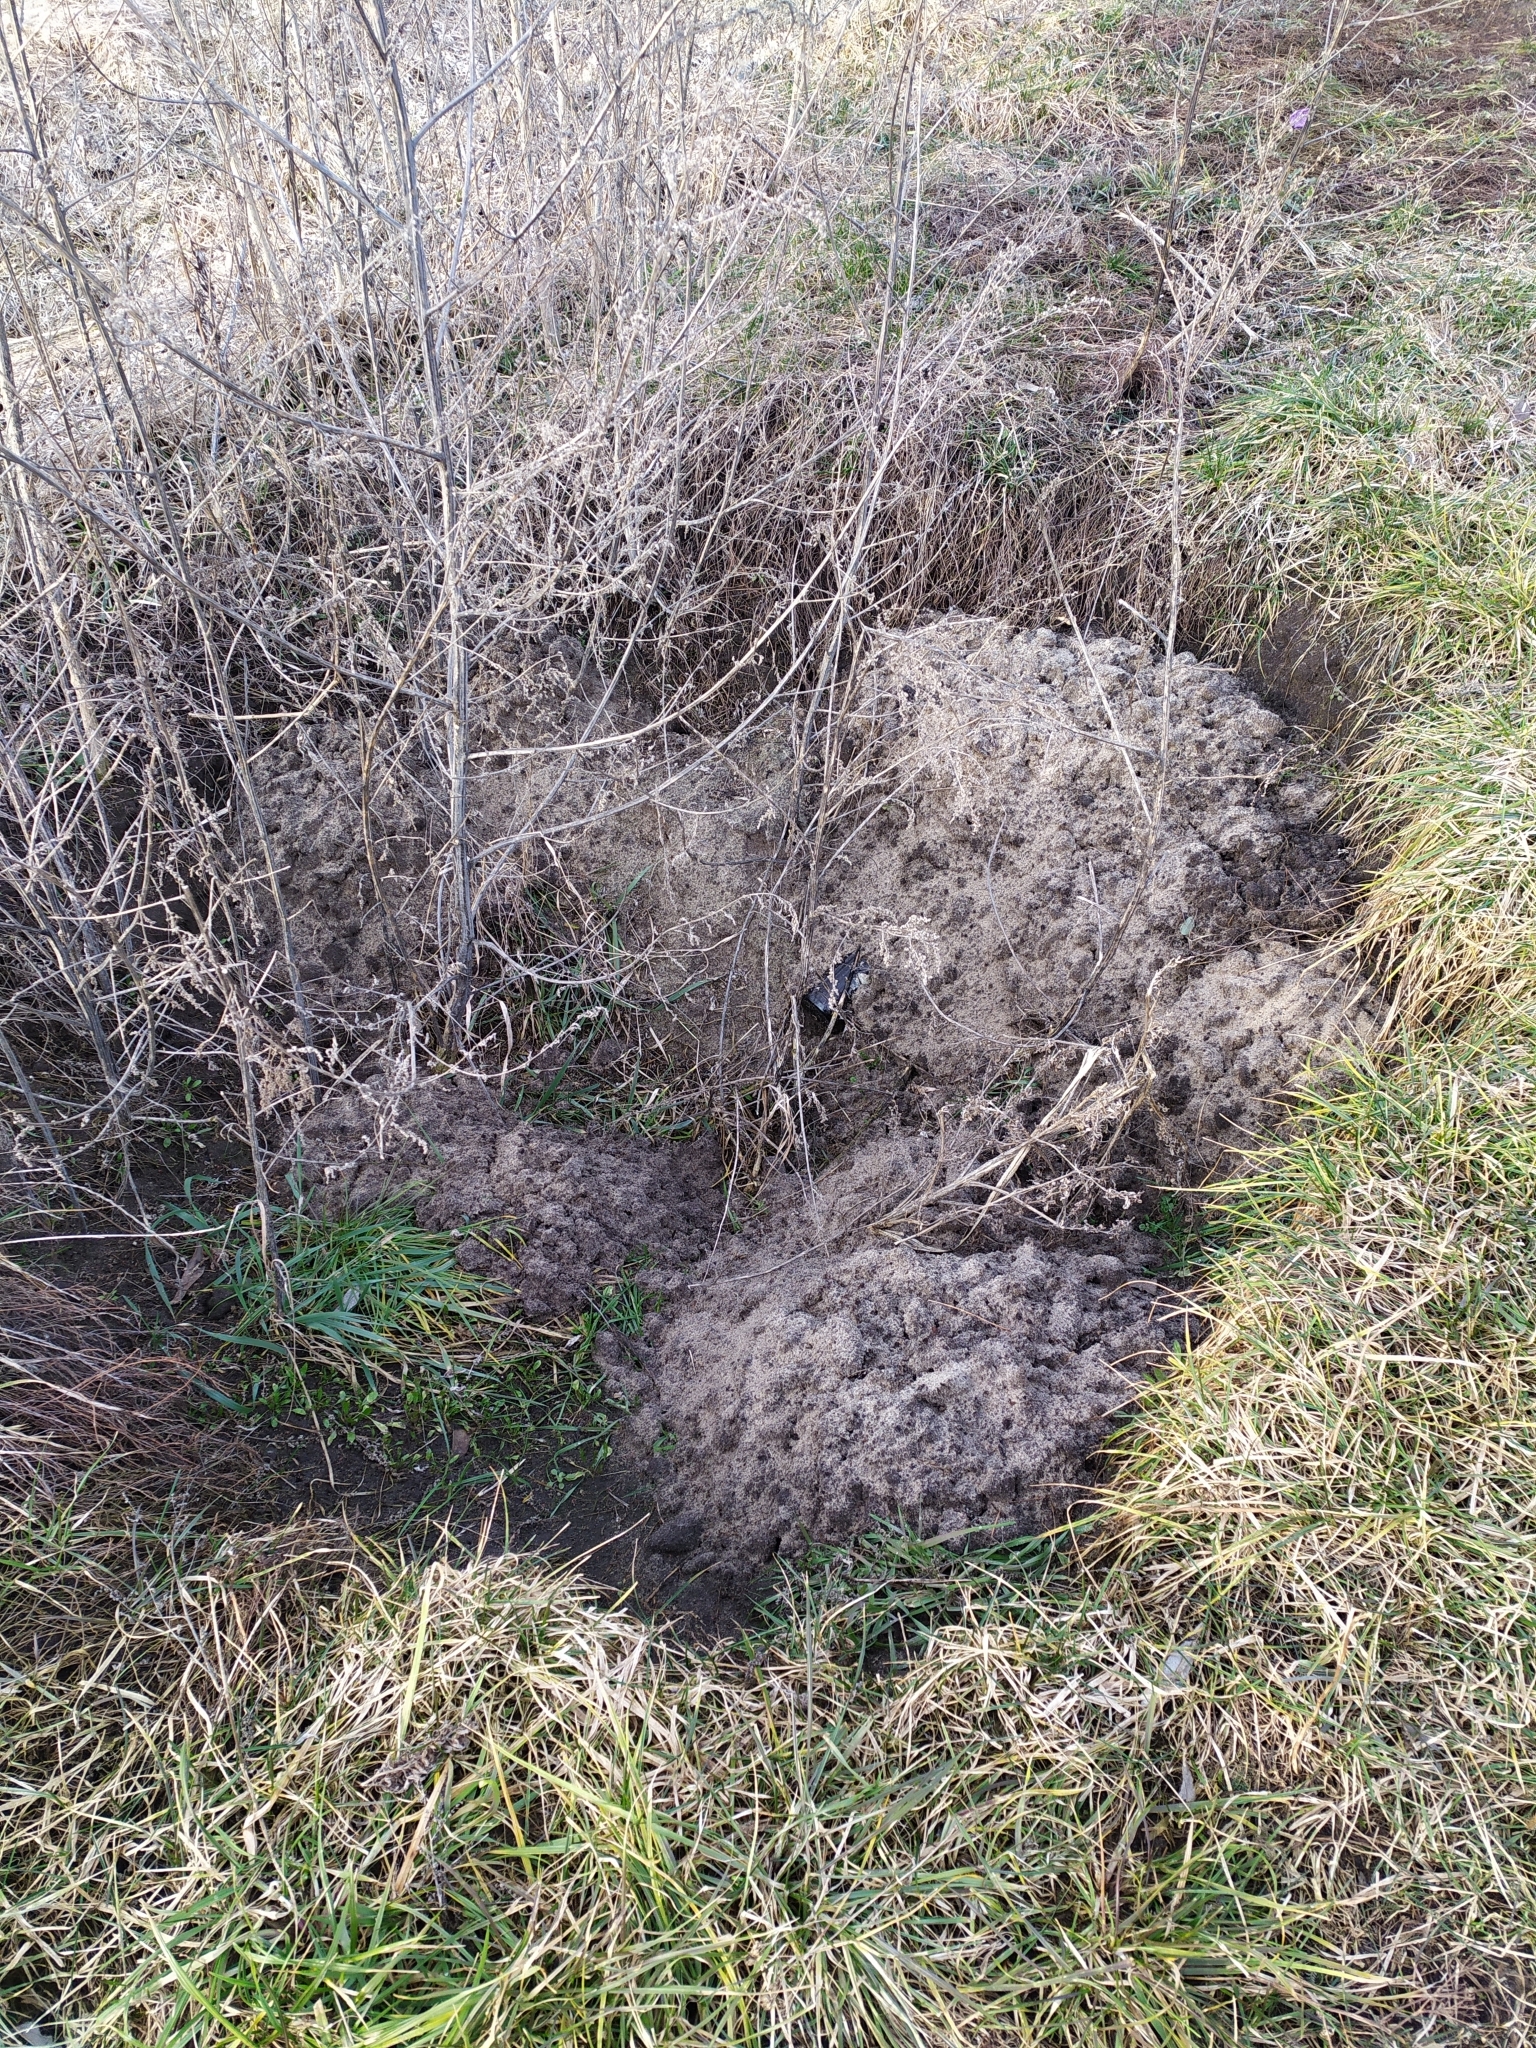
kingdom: Animalia
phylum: Chordata
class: Mammalia
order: Soricomorpha
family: Talpidae
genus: Talpa
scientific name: Talpa europaea
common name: European mole
